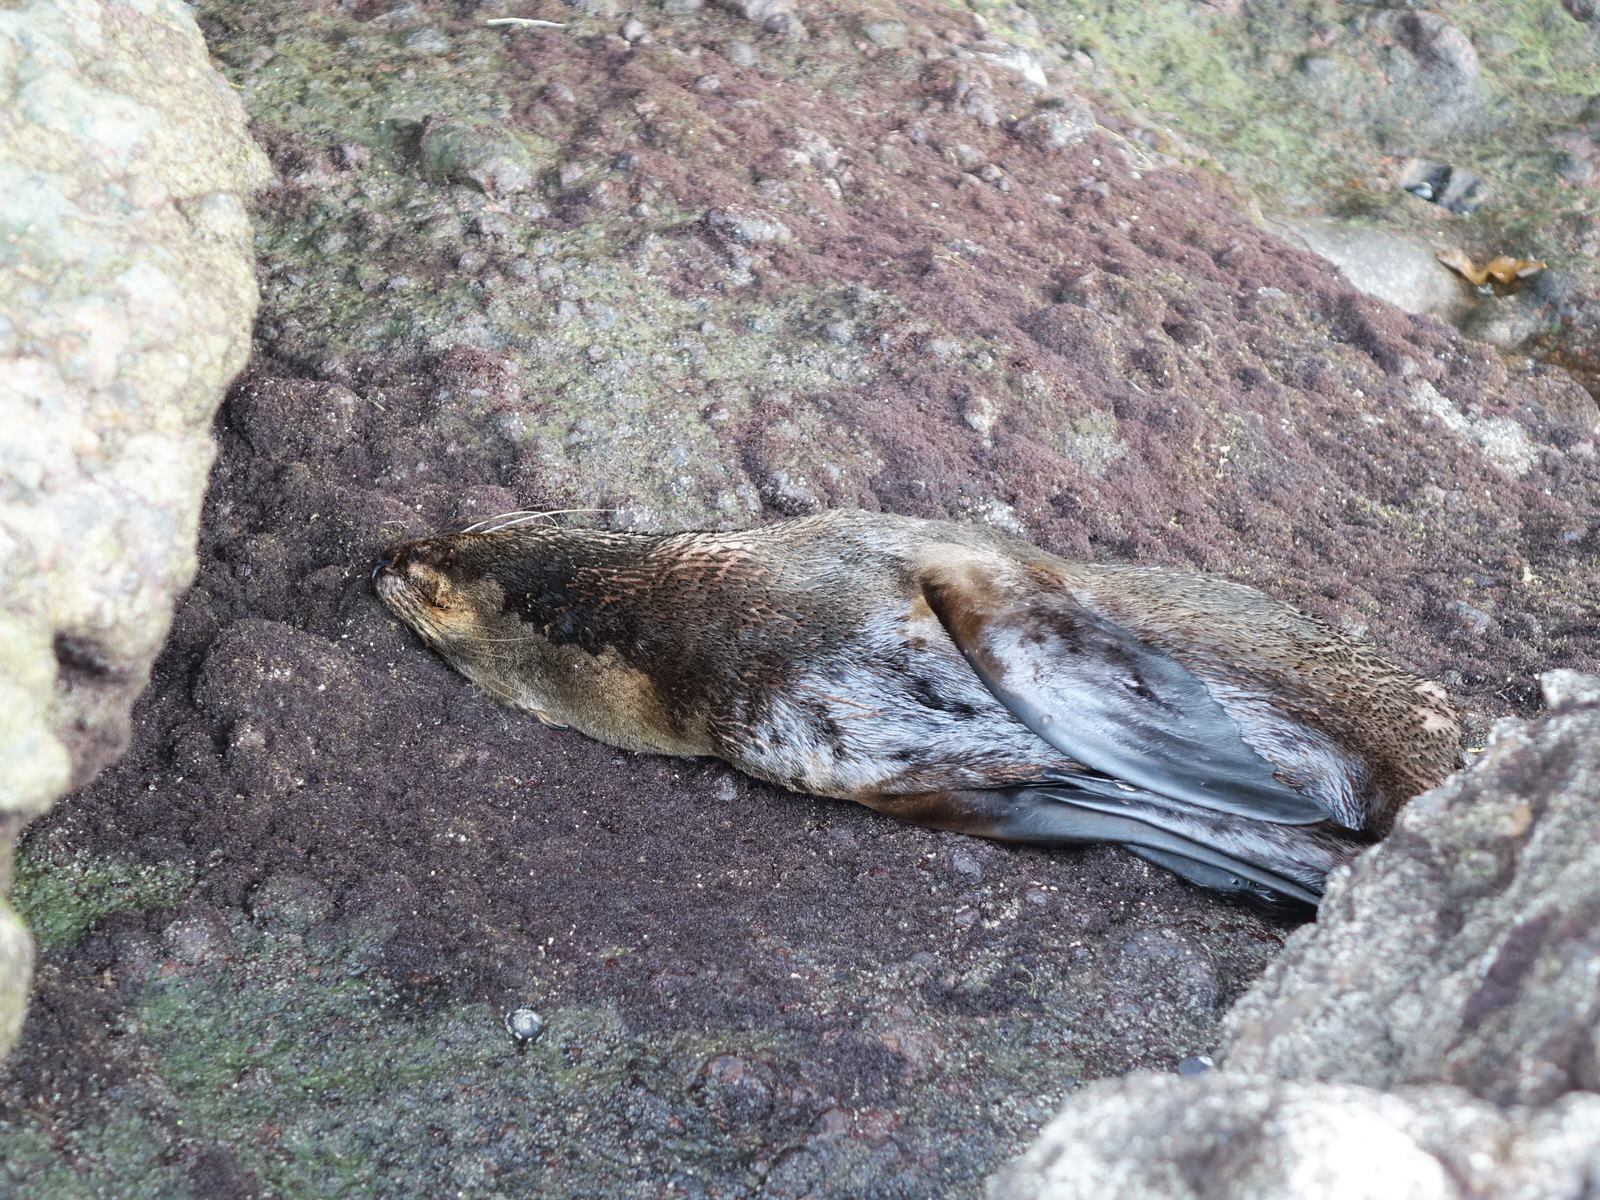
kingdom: Animalia
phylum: Chordata
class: Mammalia
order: Carnivora
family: Otariidae
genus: Arctocephalus
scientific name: Arctocephalus forsteri
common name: New zealand fur seal
